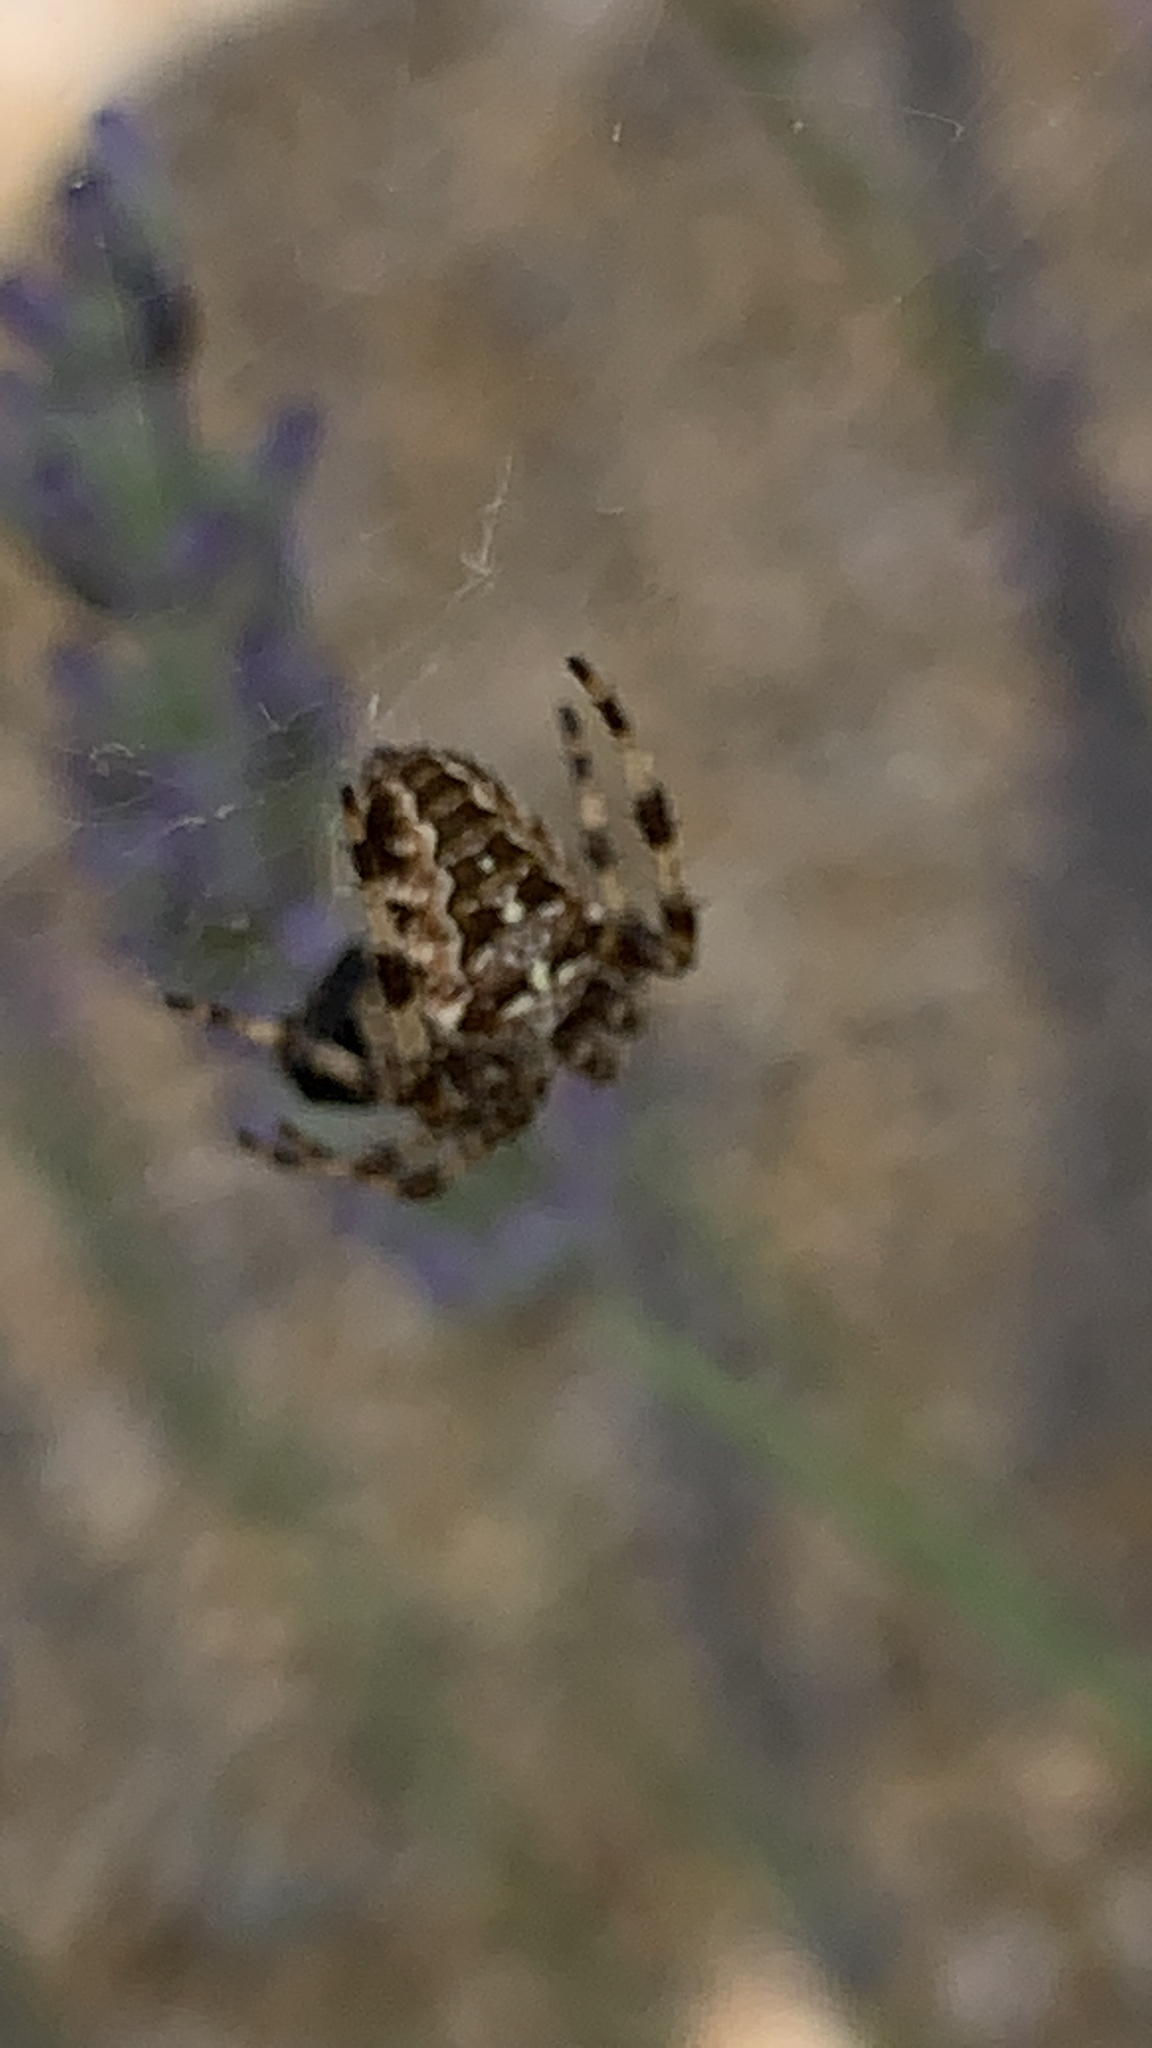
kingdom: Animalia
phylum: Arthropoda
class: Arachnida
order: Araneae
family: Araneidae
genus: Araneus
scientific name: Araneus diadematus
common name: Cross orbweaver
